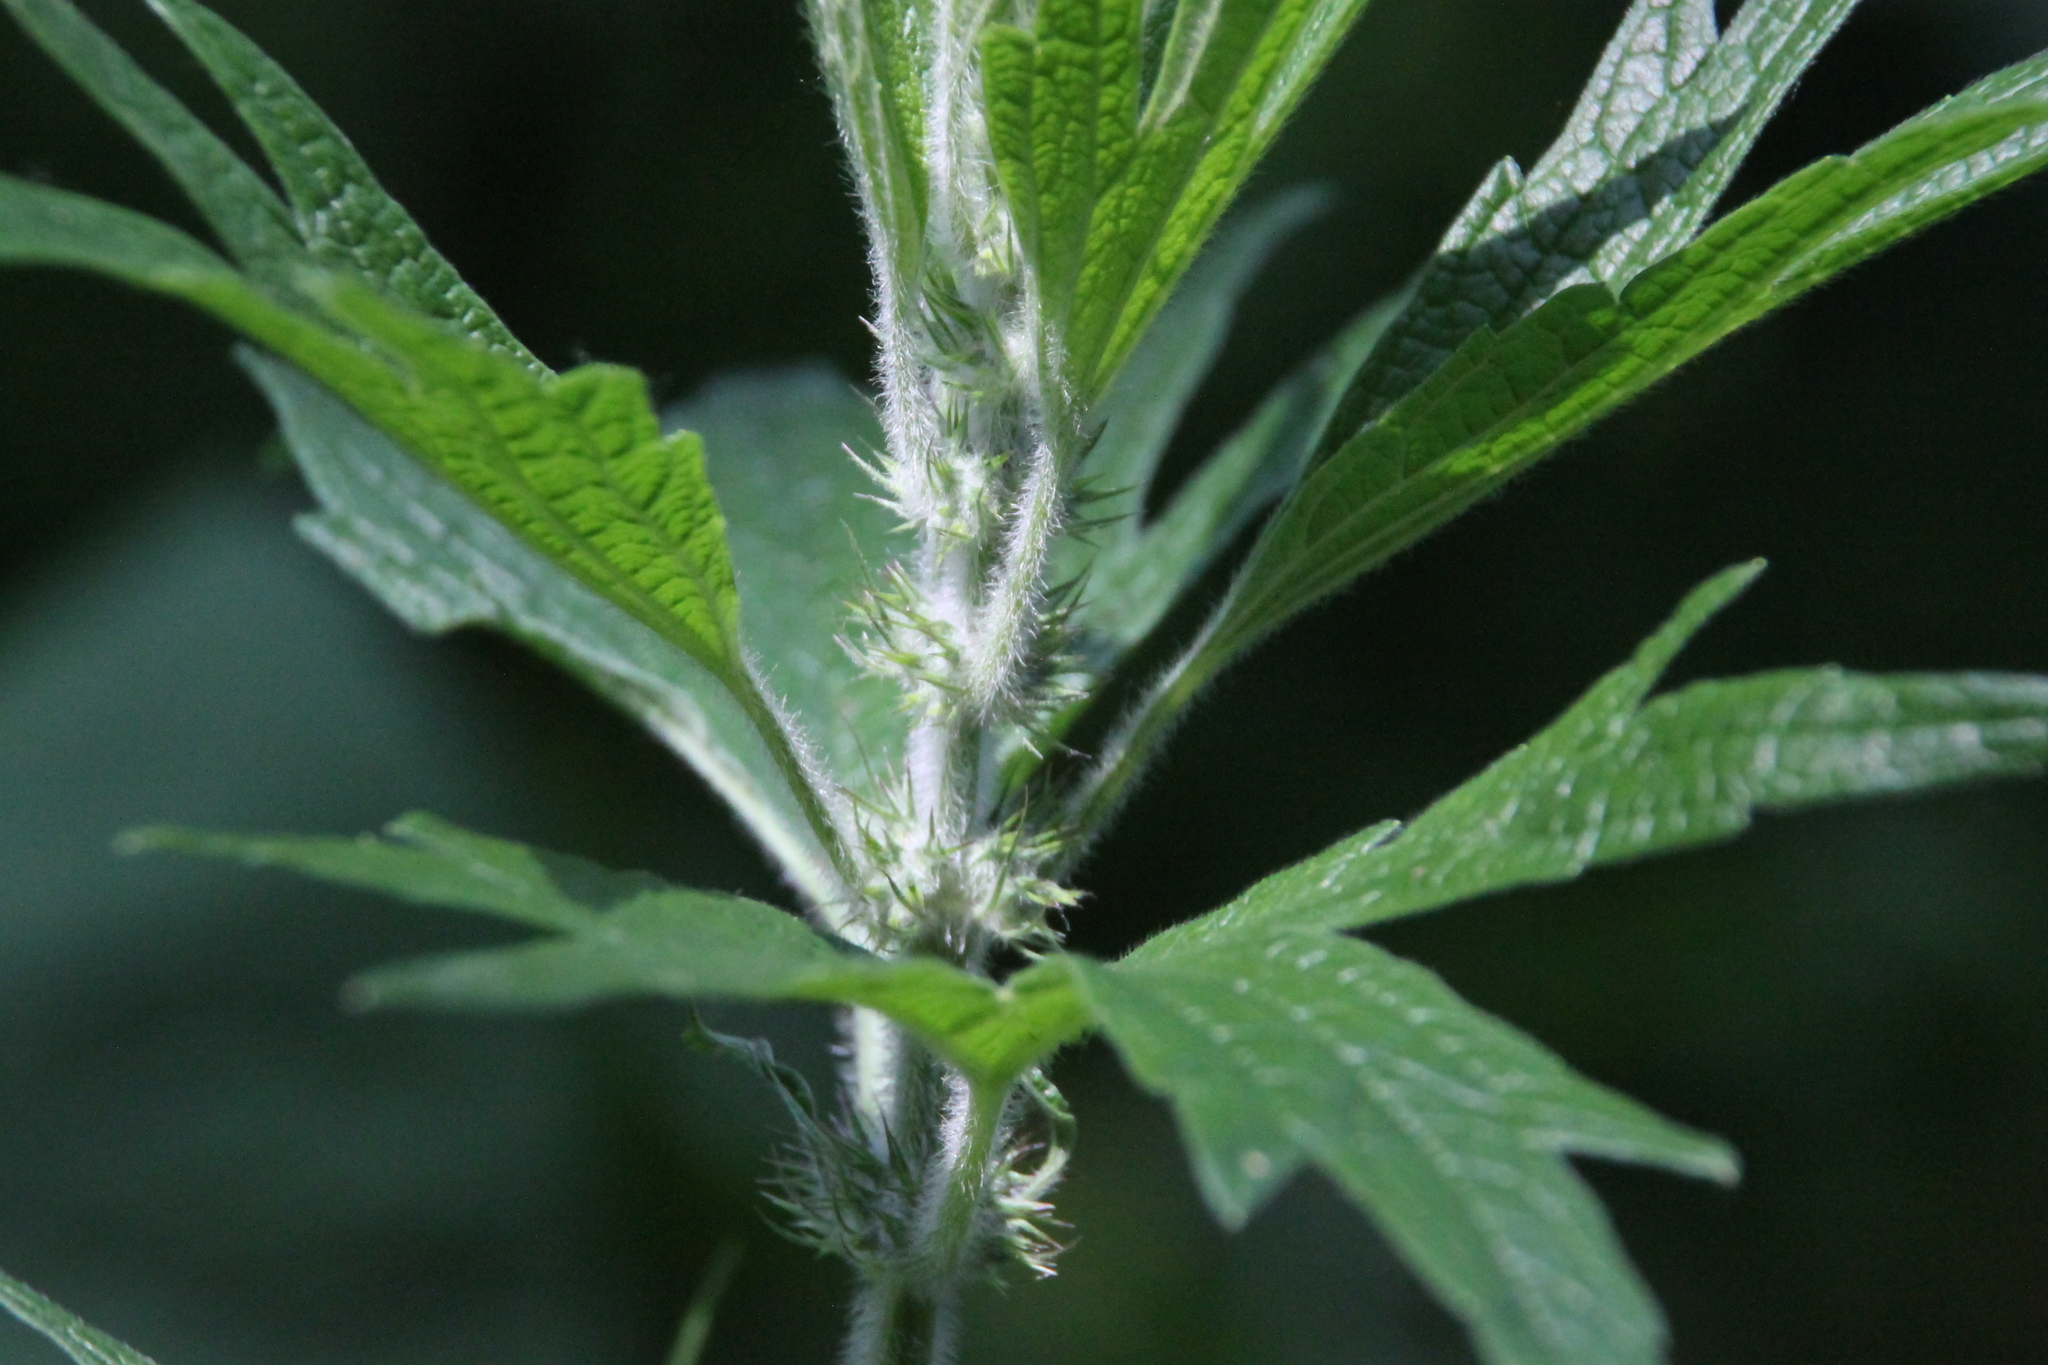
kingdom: Plantae
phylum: Tracheophyta
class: Magnoliopsida
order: Lamiales
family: Lamiaceae
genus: Leonurus
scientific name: Leonurus quinquelobatus
